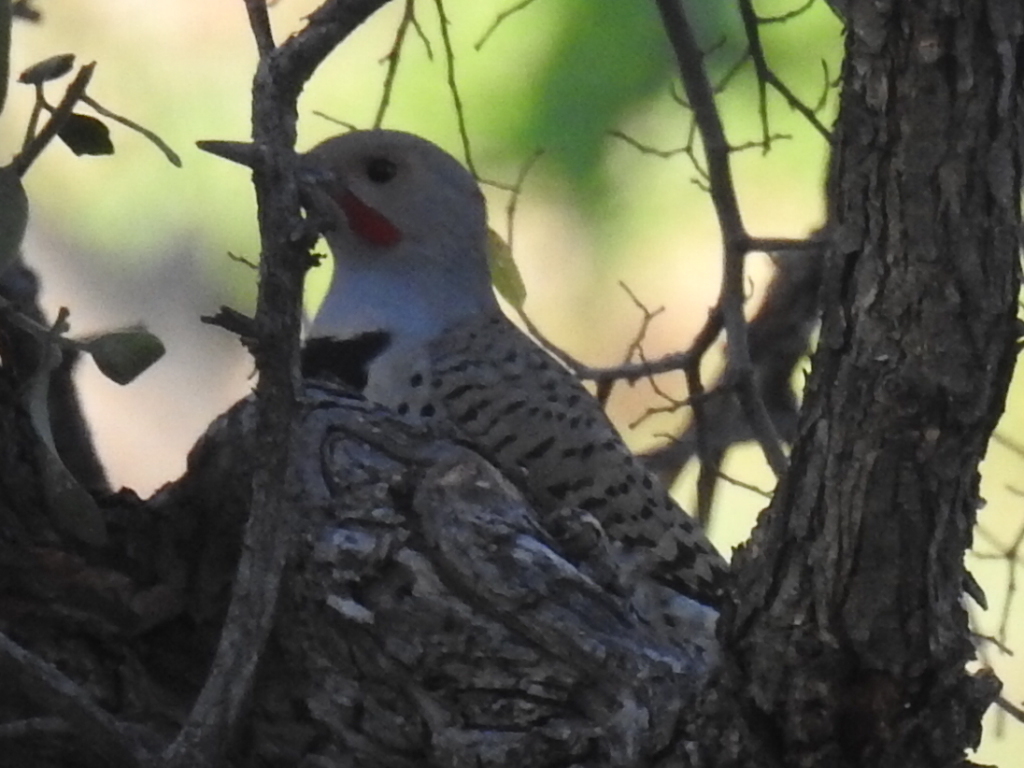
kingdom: Animalia
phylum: Chordata
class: Aves
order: Piciformes
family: Picidae
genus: Colaptes
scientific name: Colaptes auratus
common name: Northern flicker
